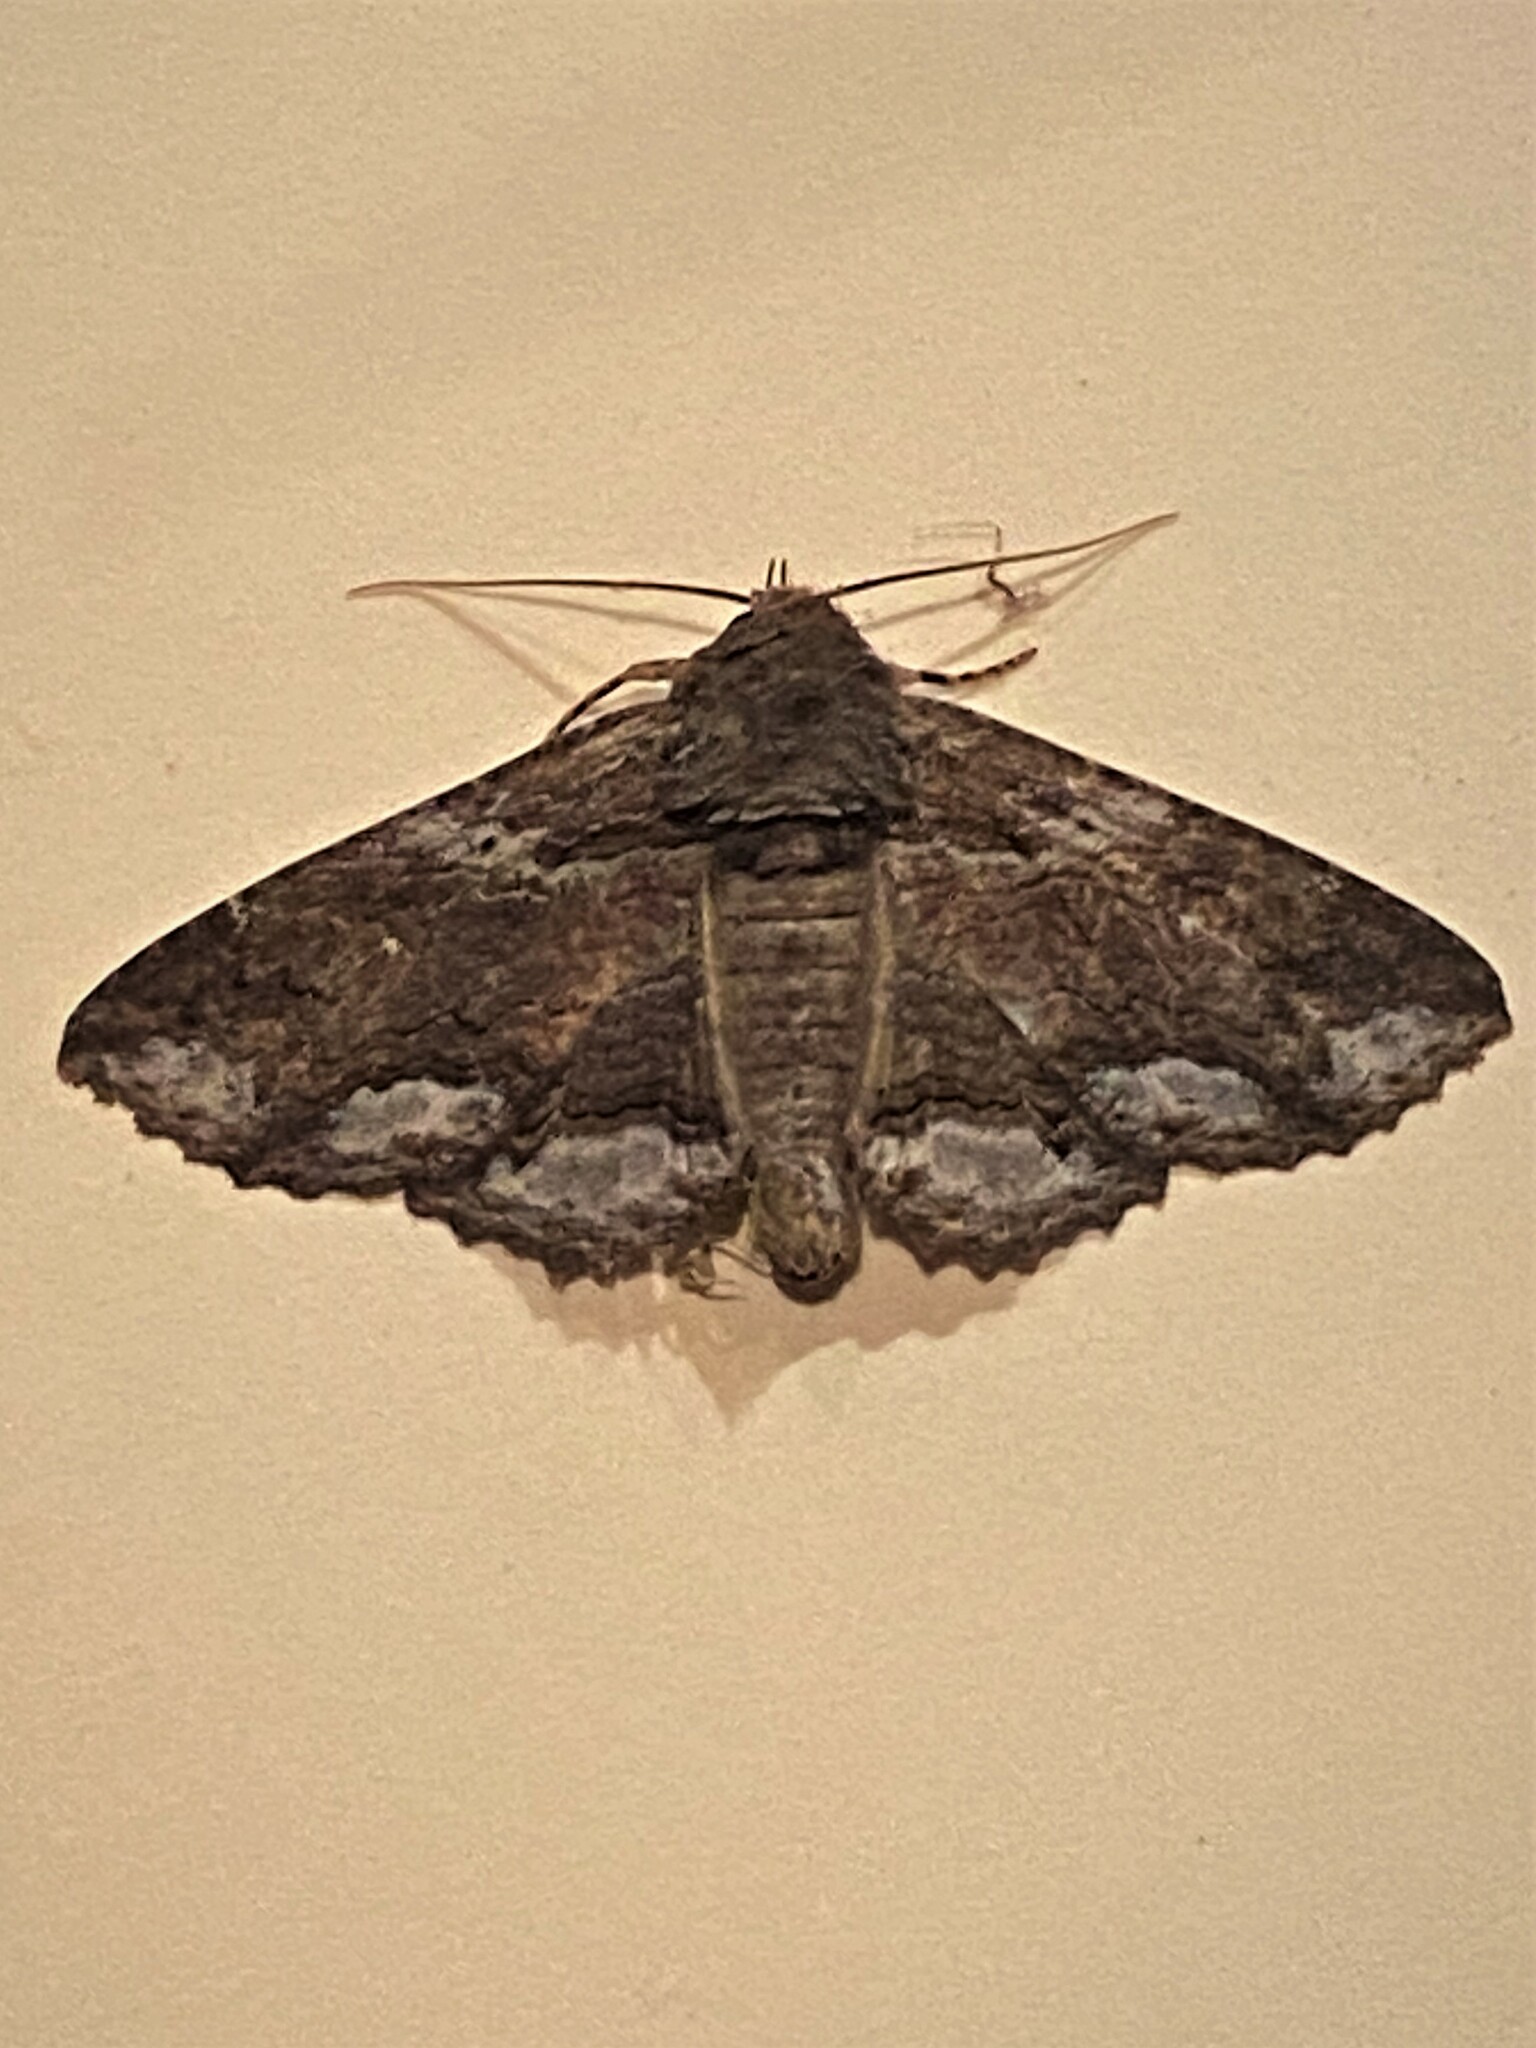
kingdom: Animalia
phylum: Arthropoda
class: Insecta
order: Lepidoptera
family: Erebidae
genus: Zale
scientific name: Zale lunata
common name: Lunate zale moth
